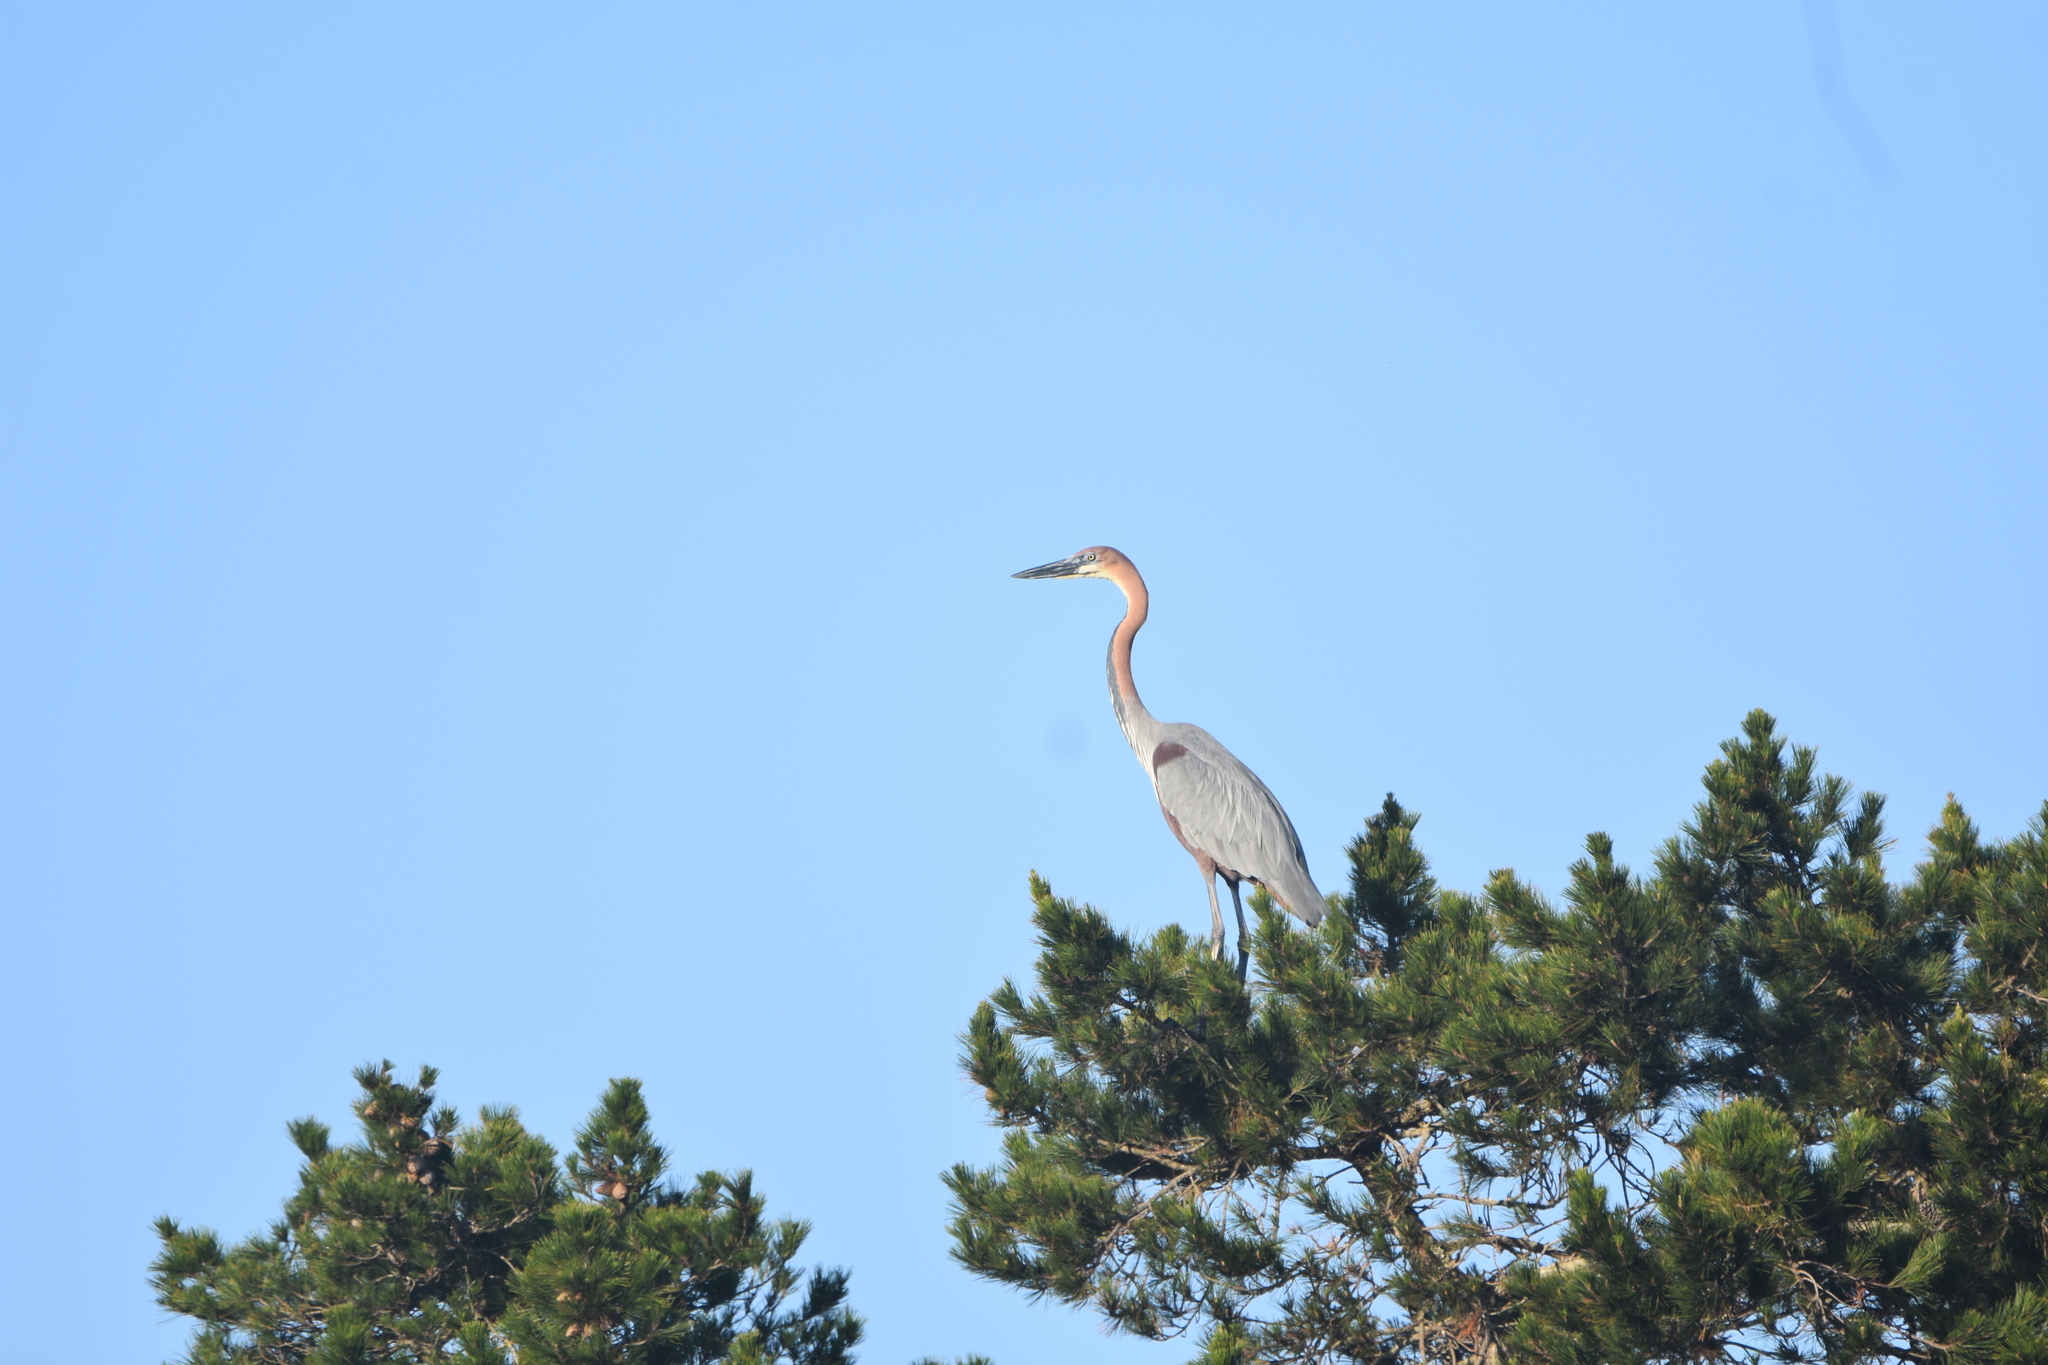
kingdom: Animalia
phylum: Chordata
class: Aves
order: Pelecaniformes
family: Ardeidae
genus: Ardea
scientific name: Ardea goliath
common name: Goliath heron
